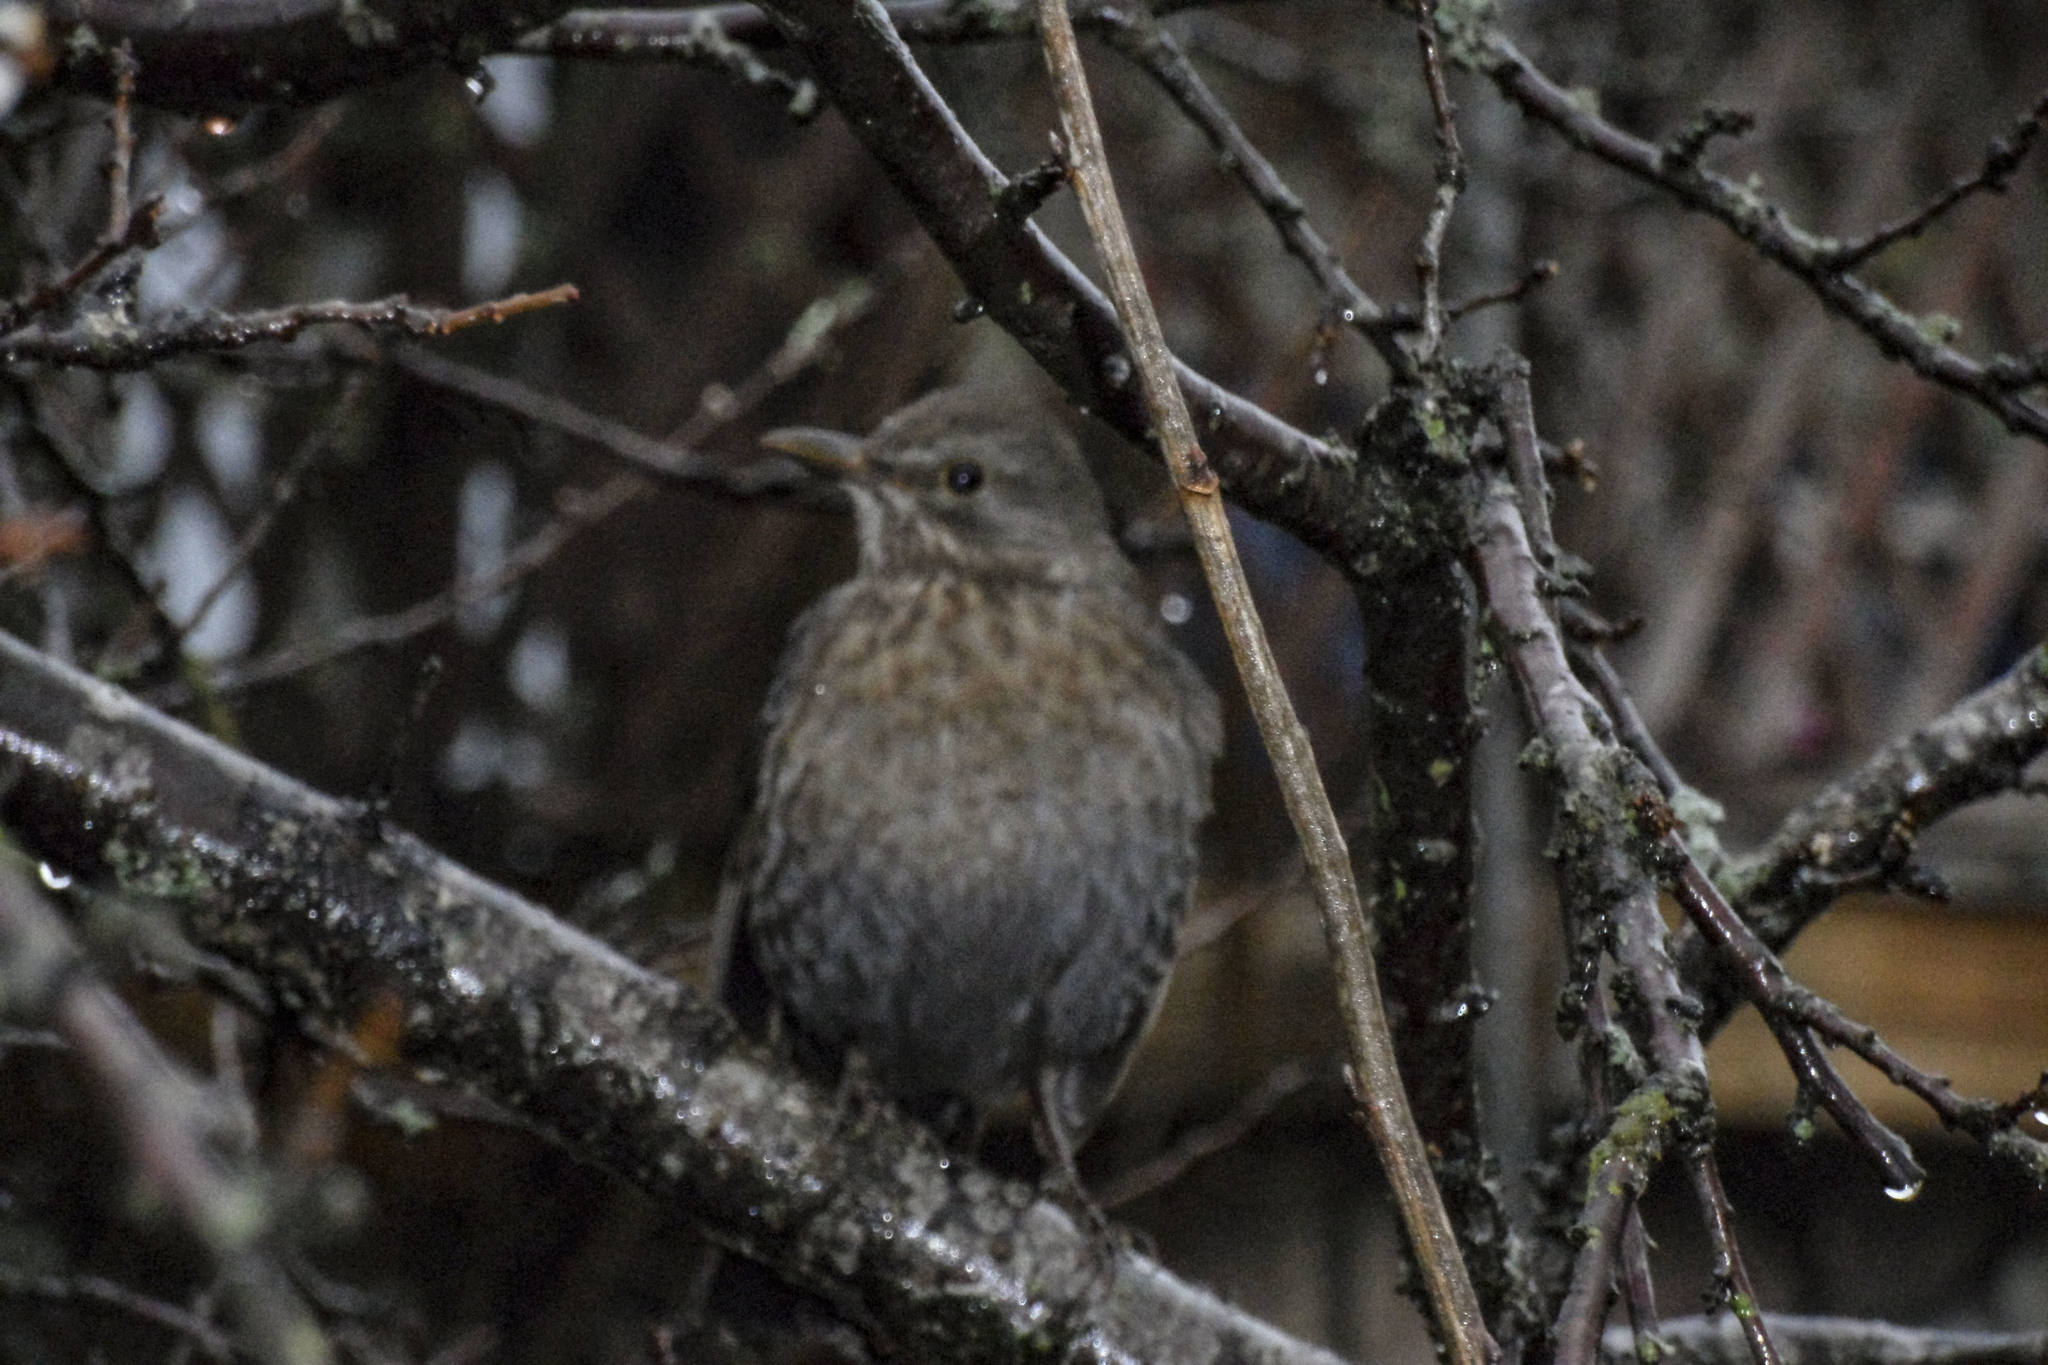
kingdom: Animalia
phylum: Chordata
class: Aves
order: Passeriformes
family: Turdidae
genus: Turdus
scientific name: Turdus merula
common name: Common blackbird
